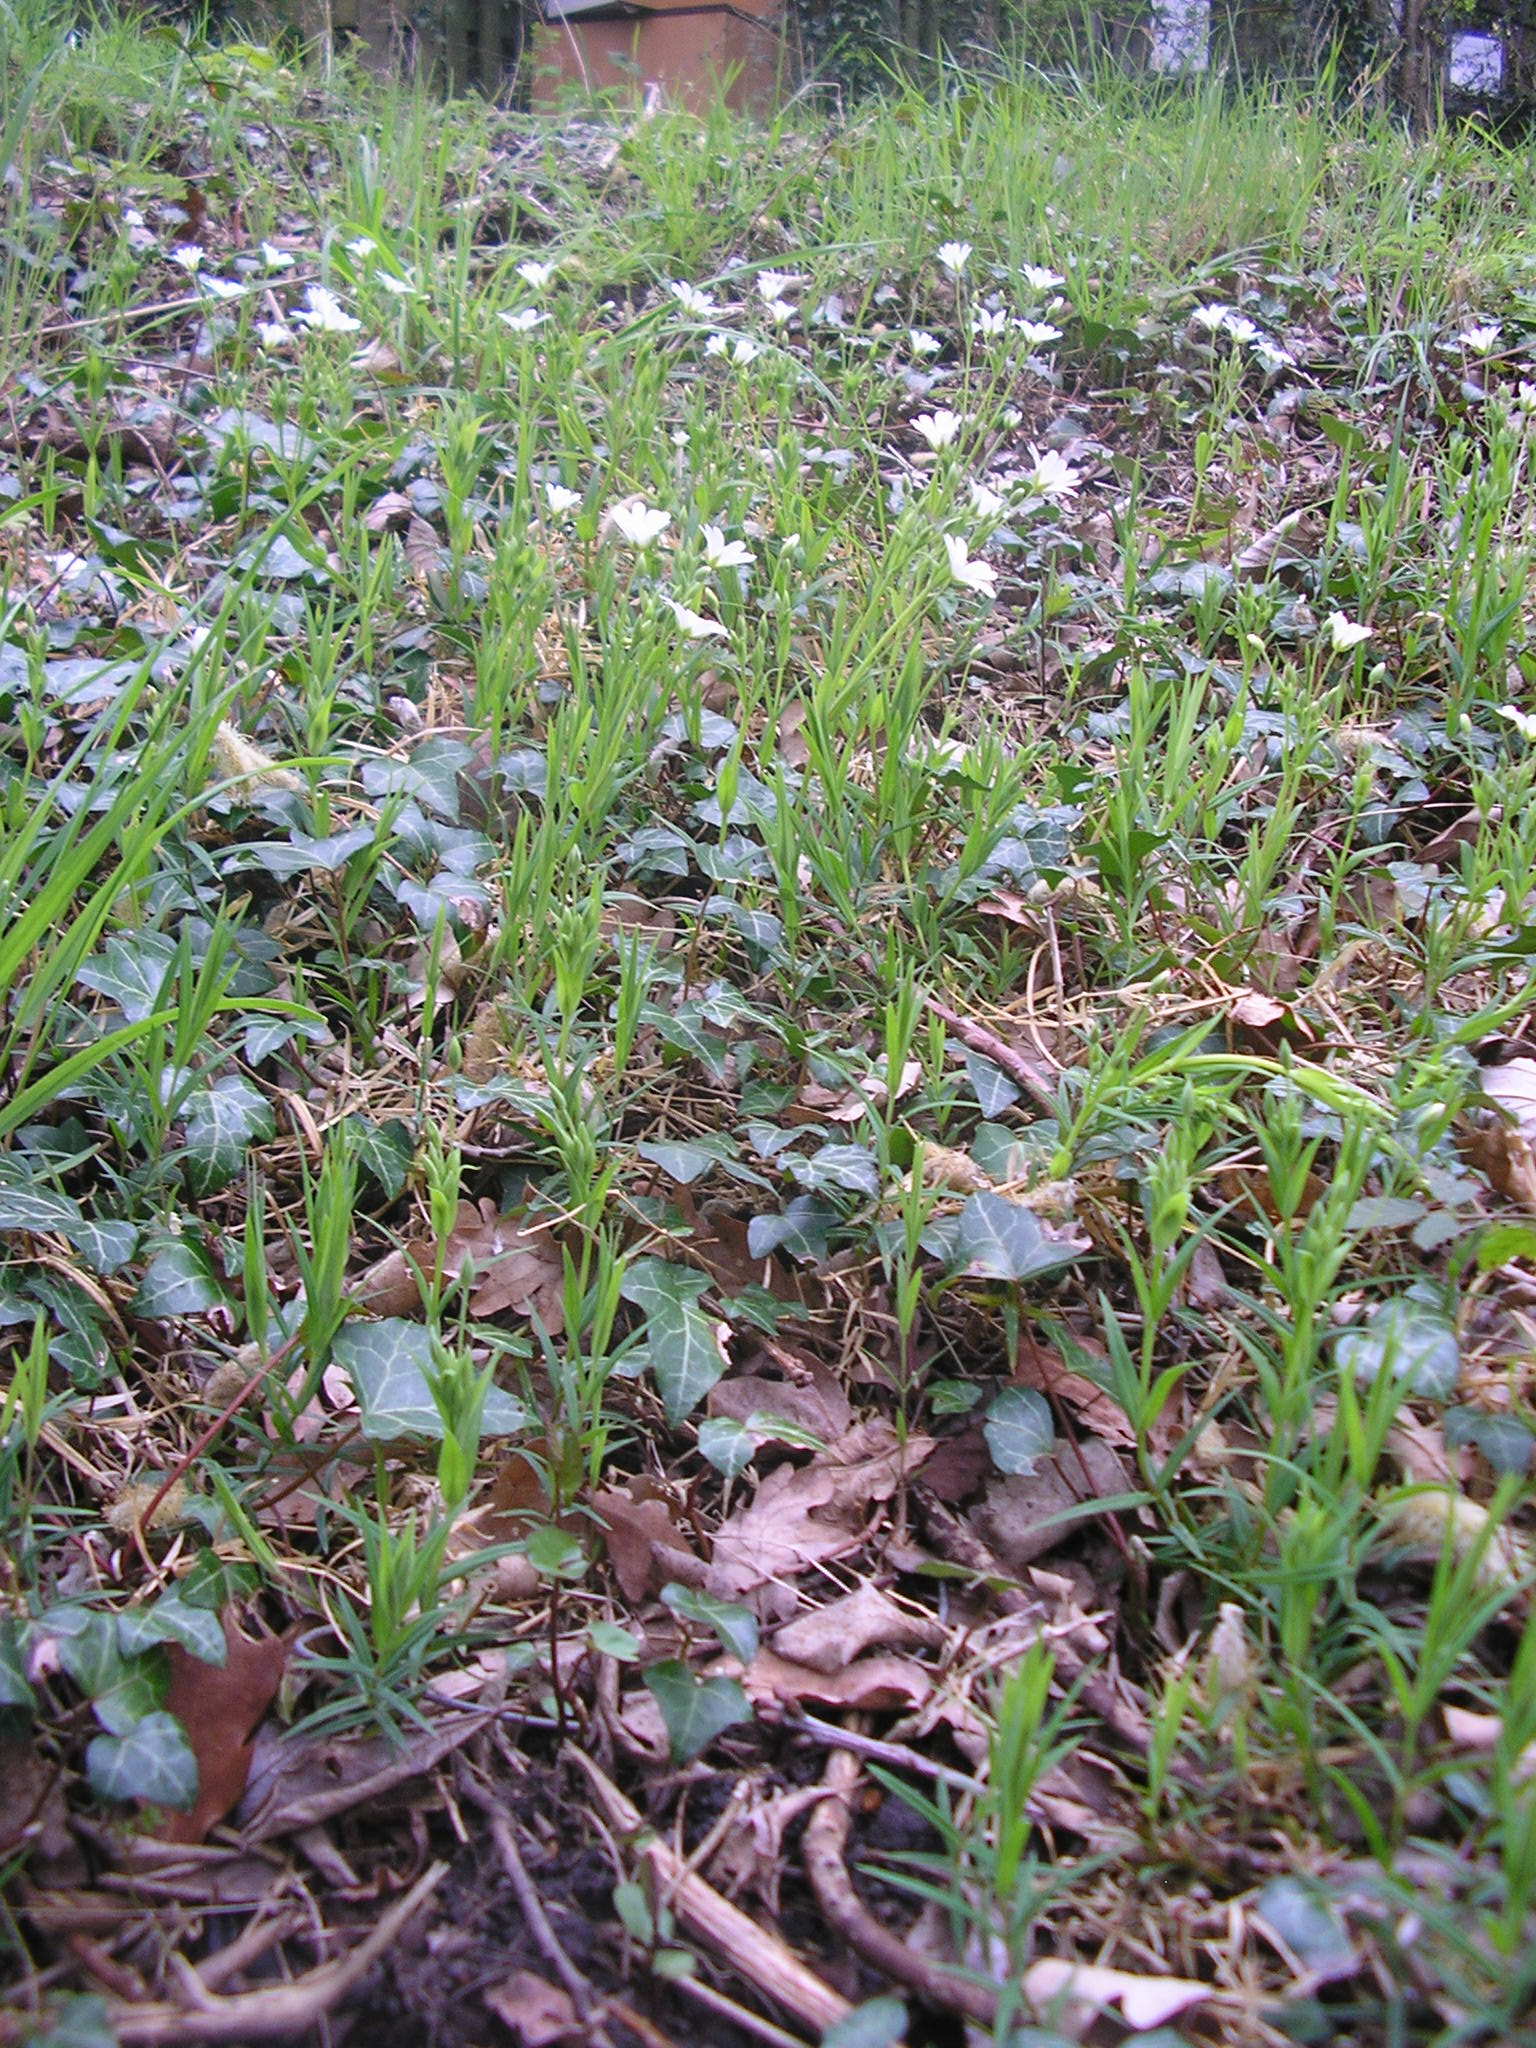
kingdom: Plantae
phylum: Tracheophyta
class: Magnoliopsida
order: Caryophyllales
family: Caryophyllaceae
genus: Rabelera
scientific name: Rabelera holostea
